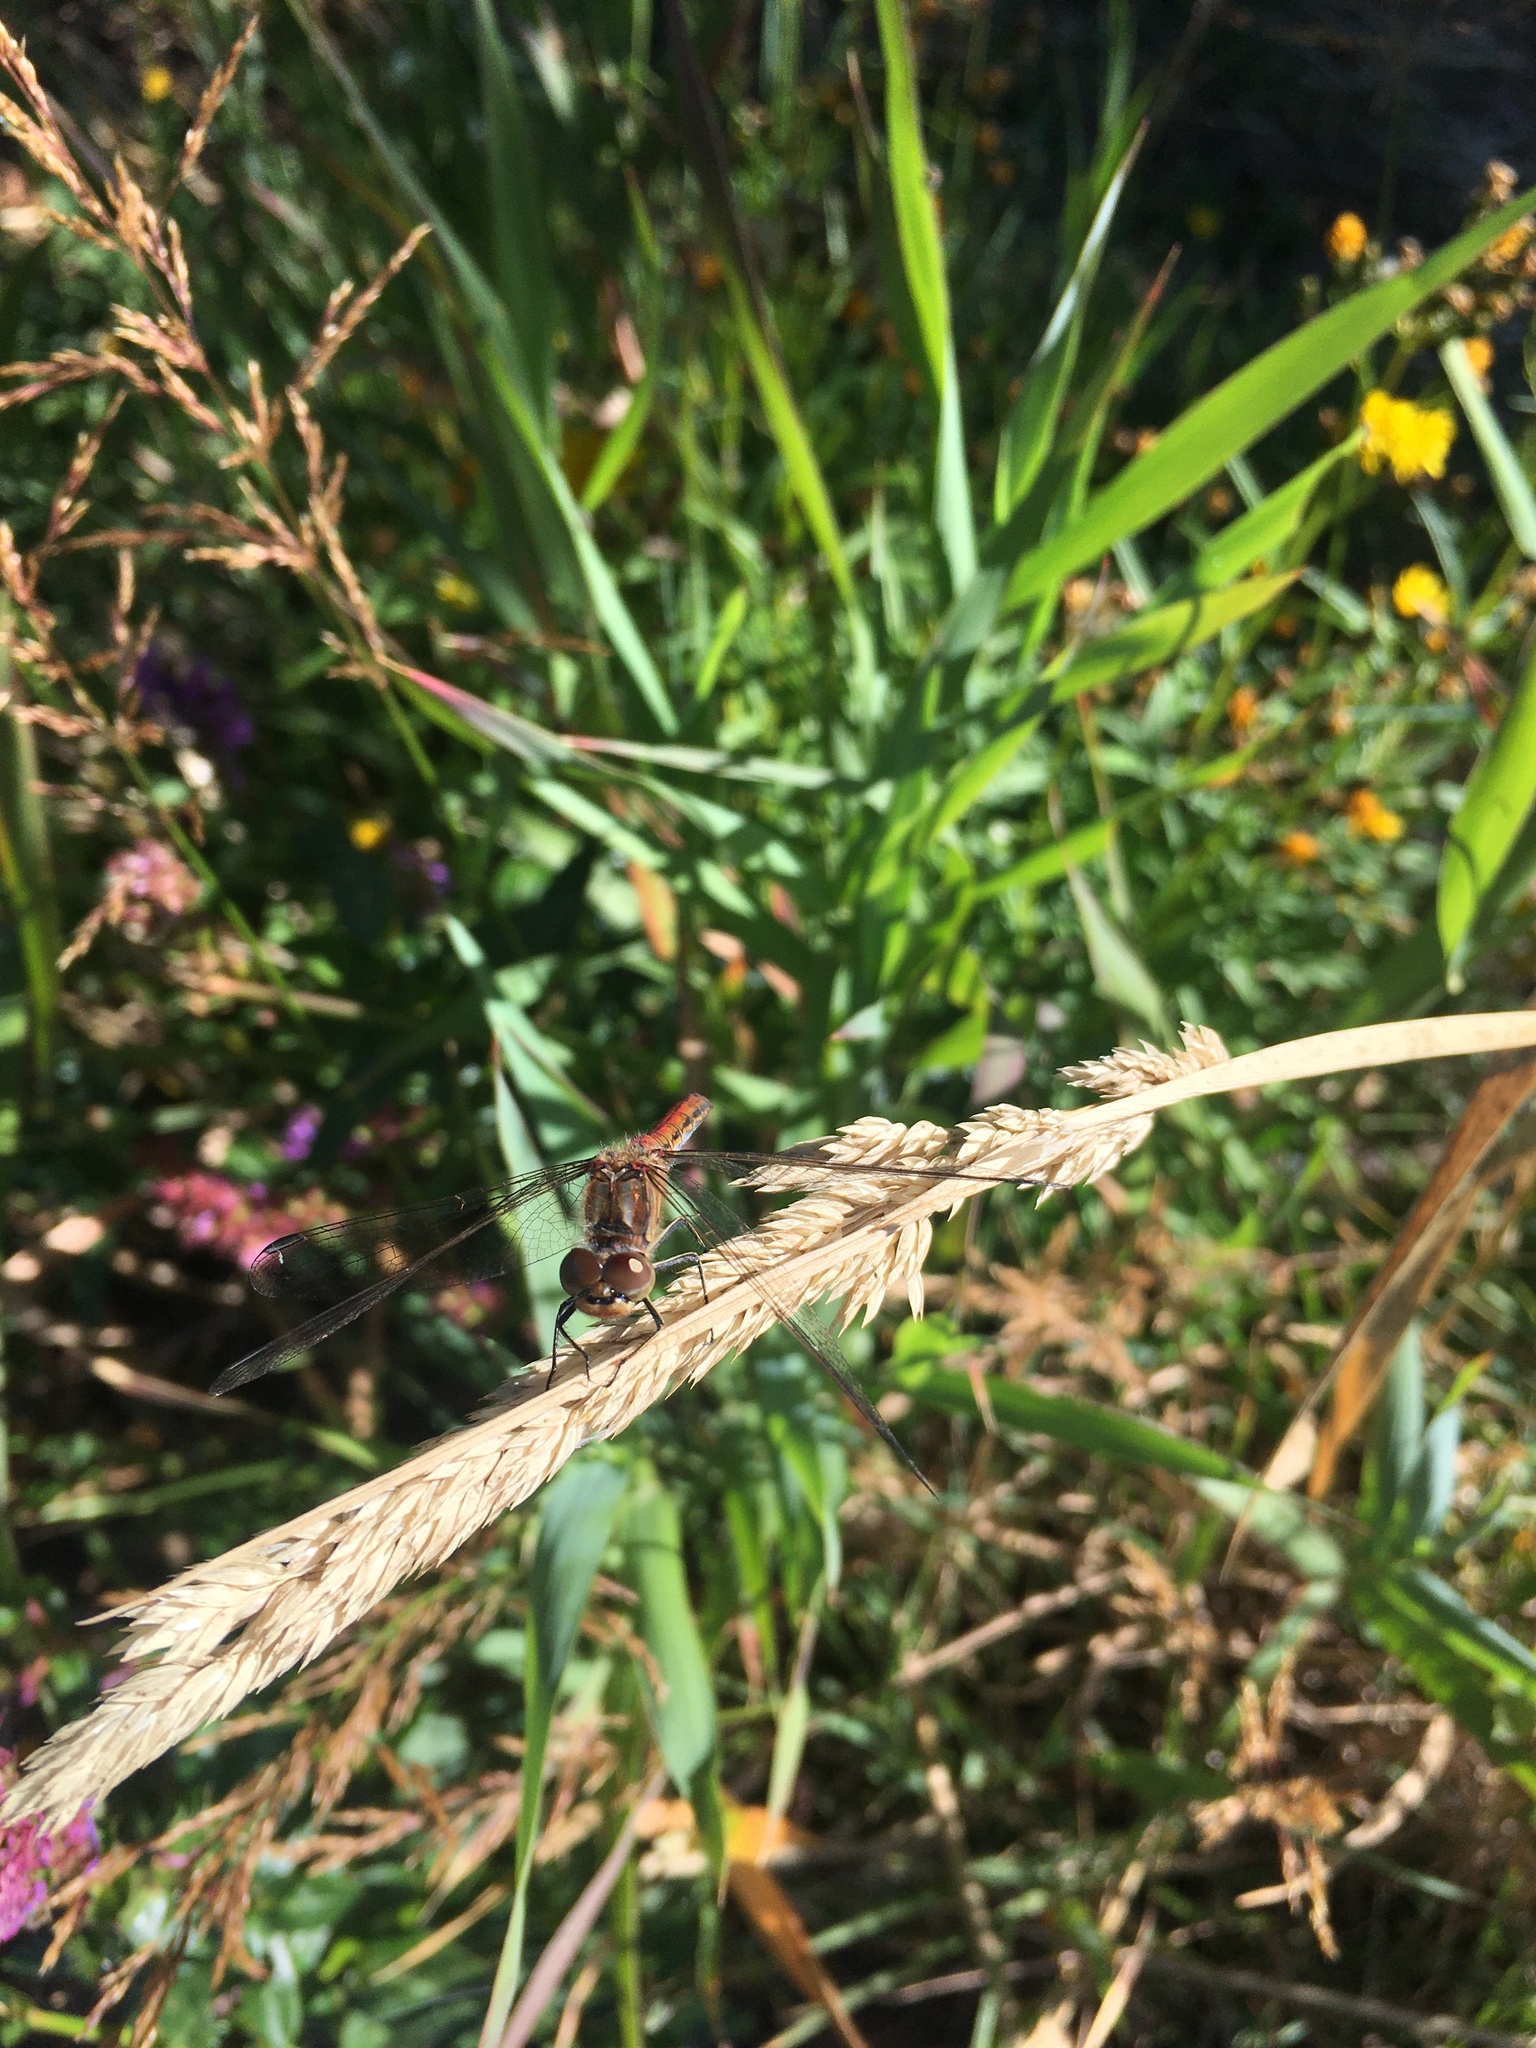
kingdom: Animalia
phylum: Arthropoda
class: Insecta
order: Odonata
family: Libellulidae
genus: Sympetrum
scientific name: Sympetrum vulgatum
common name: Vagrant darter
